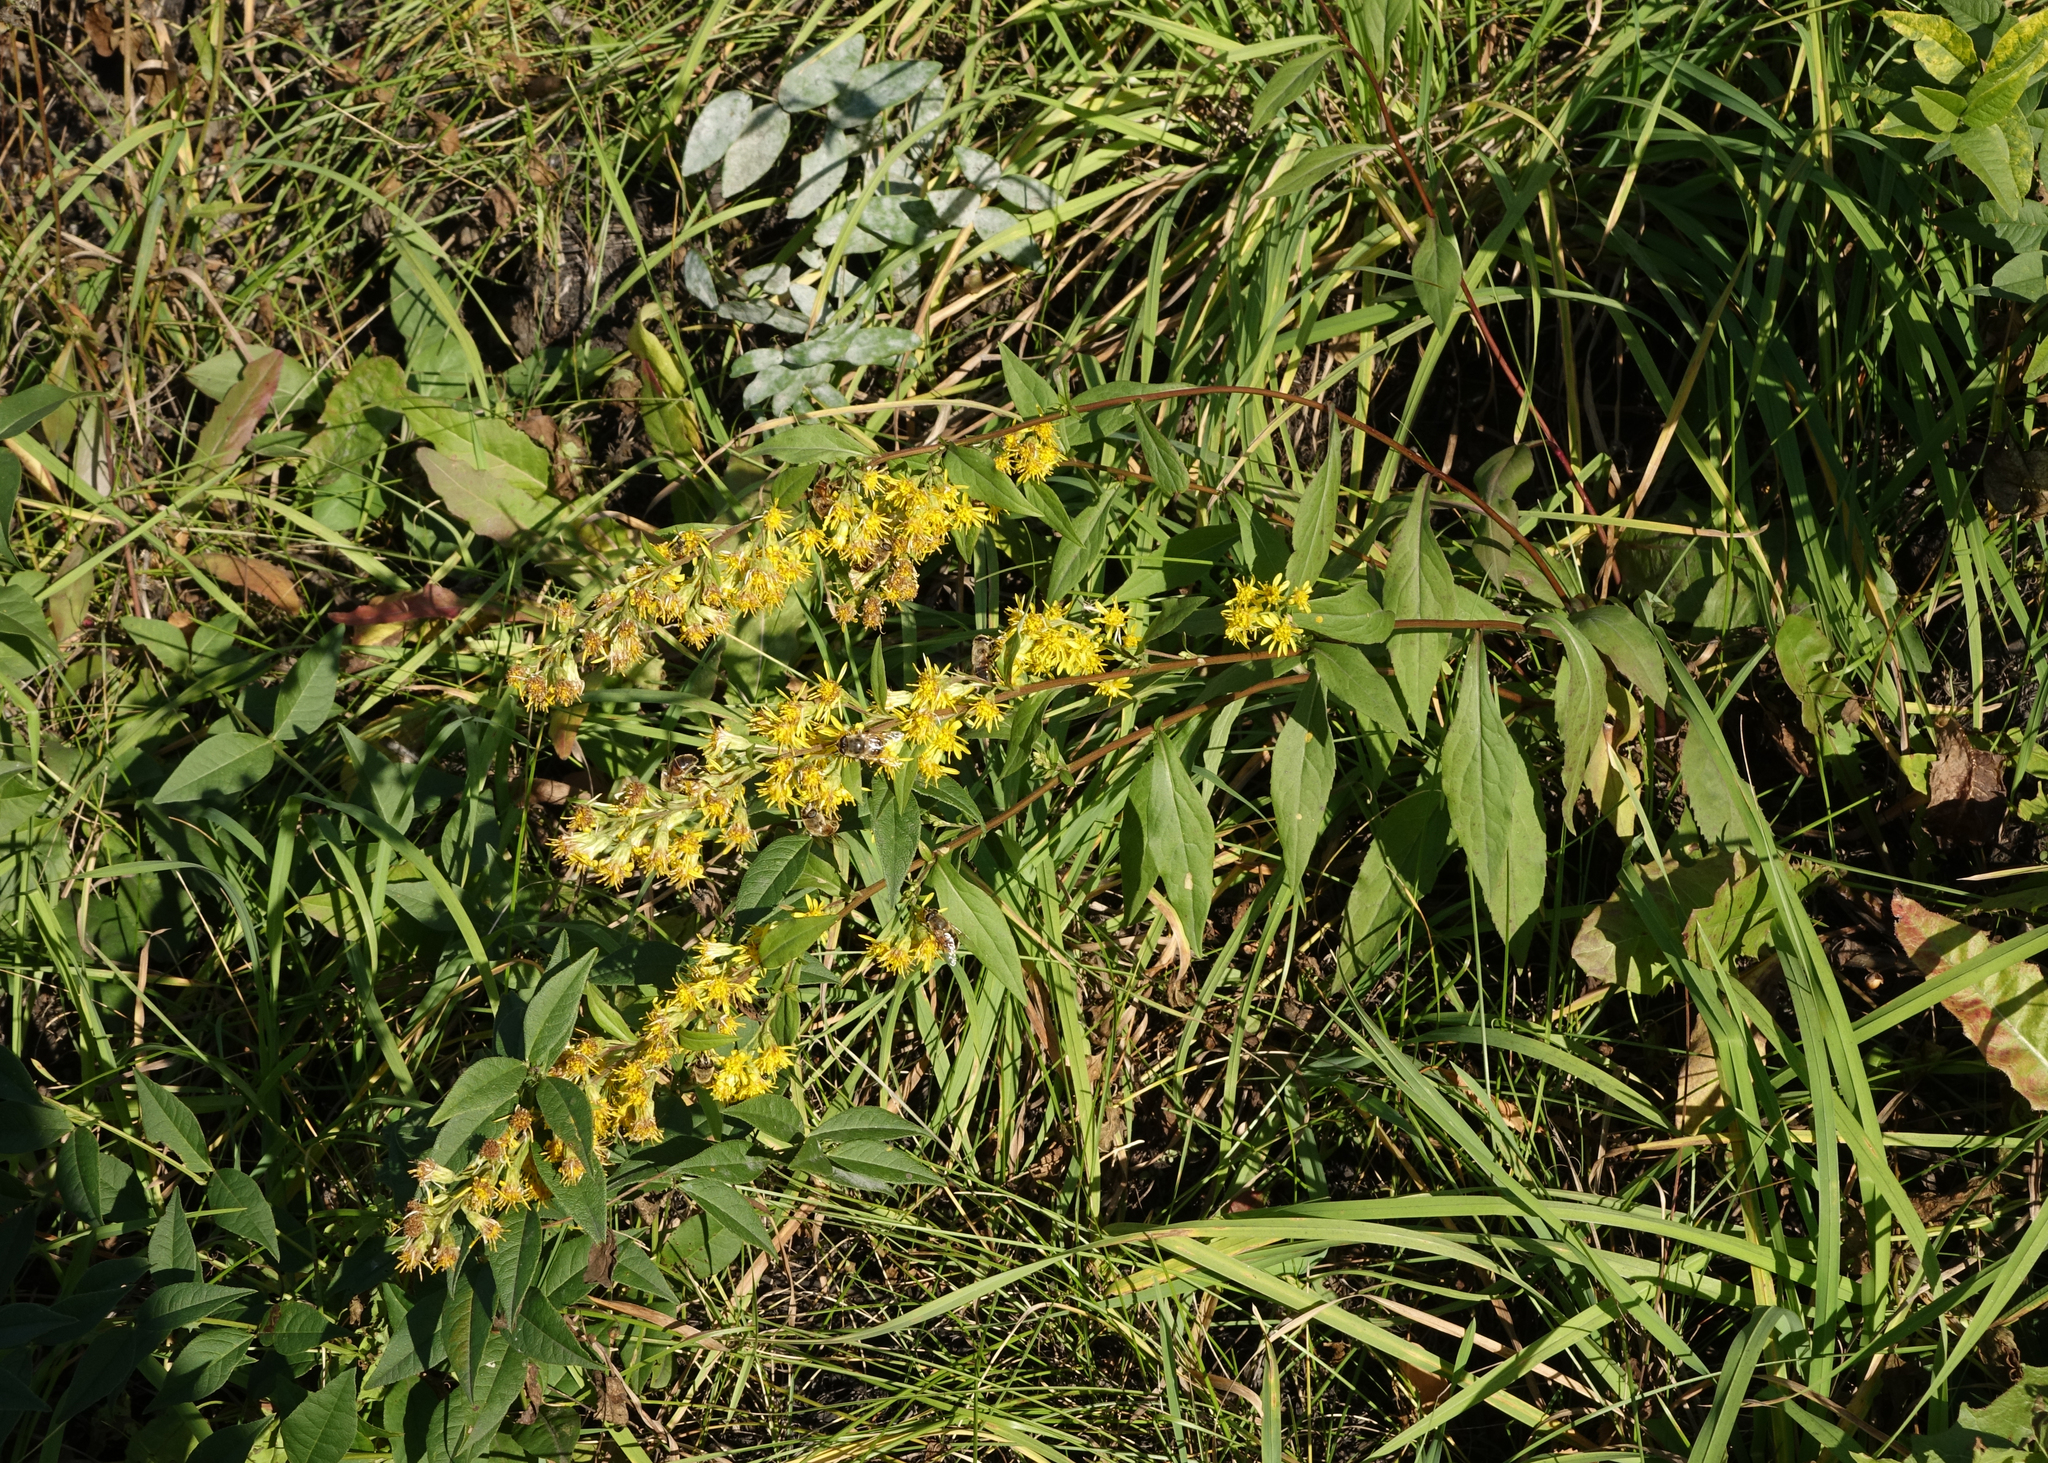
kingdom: Plantae
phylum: Tracheophyta
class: Magnoliopsida
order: Asterales
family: Asteraceae
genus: Solidago
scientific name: Solidago virgaurea
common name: Goldenrod
